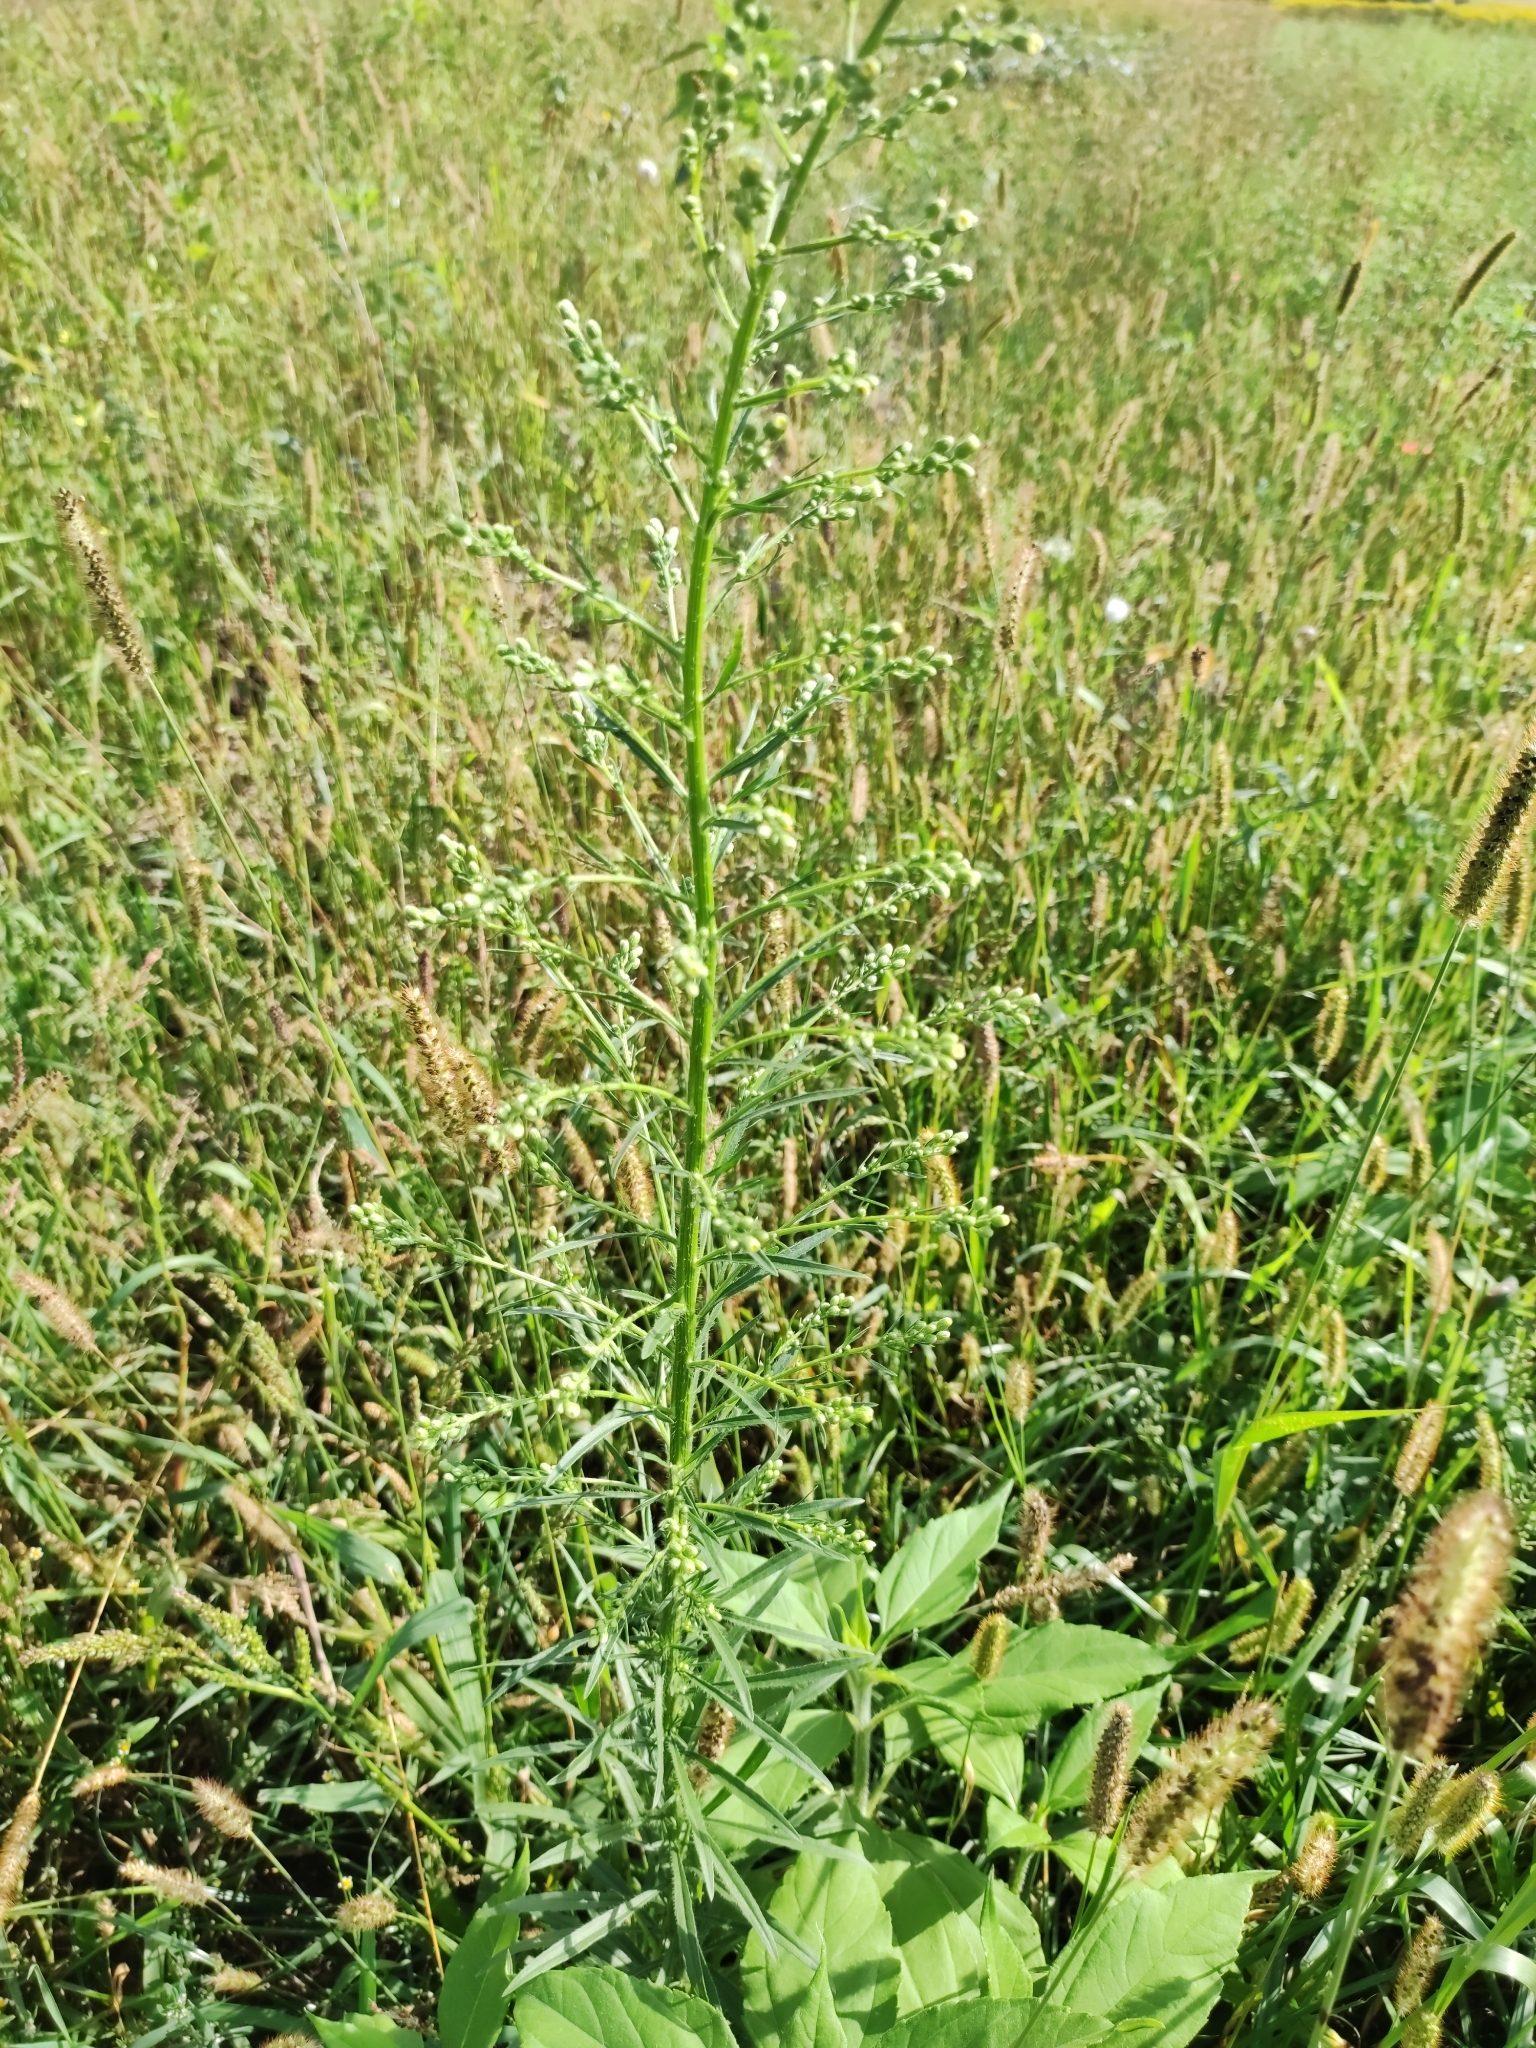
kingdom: Plantae
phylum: Tracheophyta
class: Magnoliopsida
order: Asterales
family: Asteraceae
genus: Erigeron
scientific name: Erigeron canadensis
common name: Canadian fleabane
